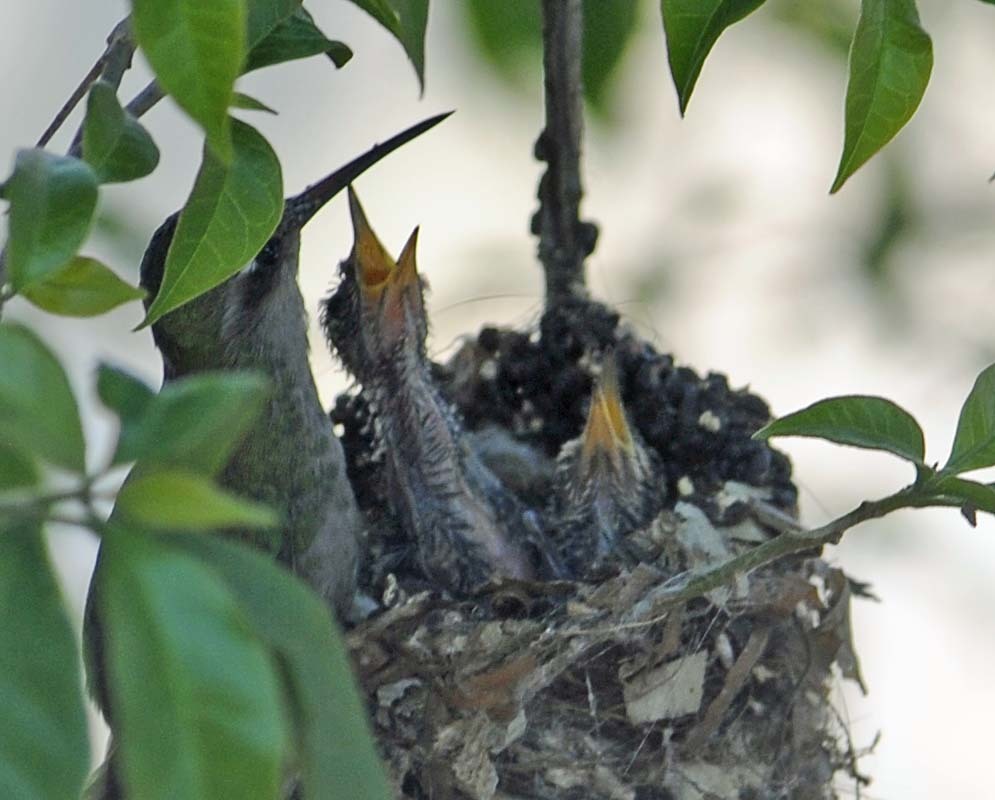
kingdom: Animalia
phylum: Chordata
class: Aves
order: Apodiformes
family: Trochilidae
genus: Cynanthus
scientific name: Cynanthus latirostris
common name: Broad-billed hummingbird
